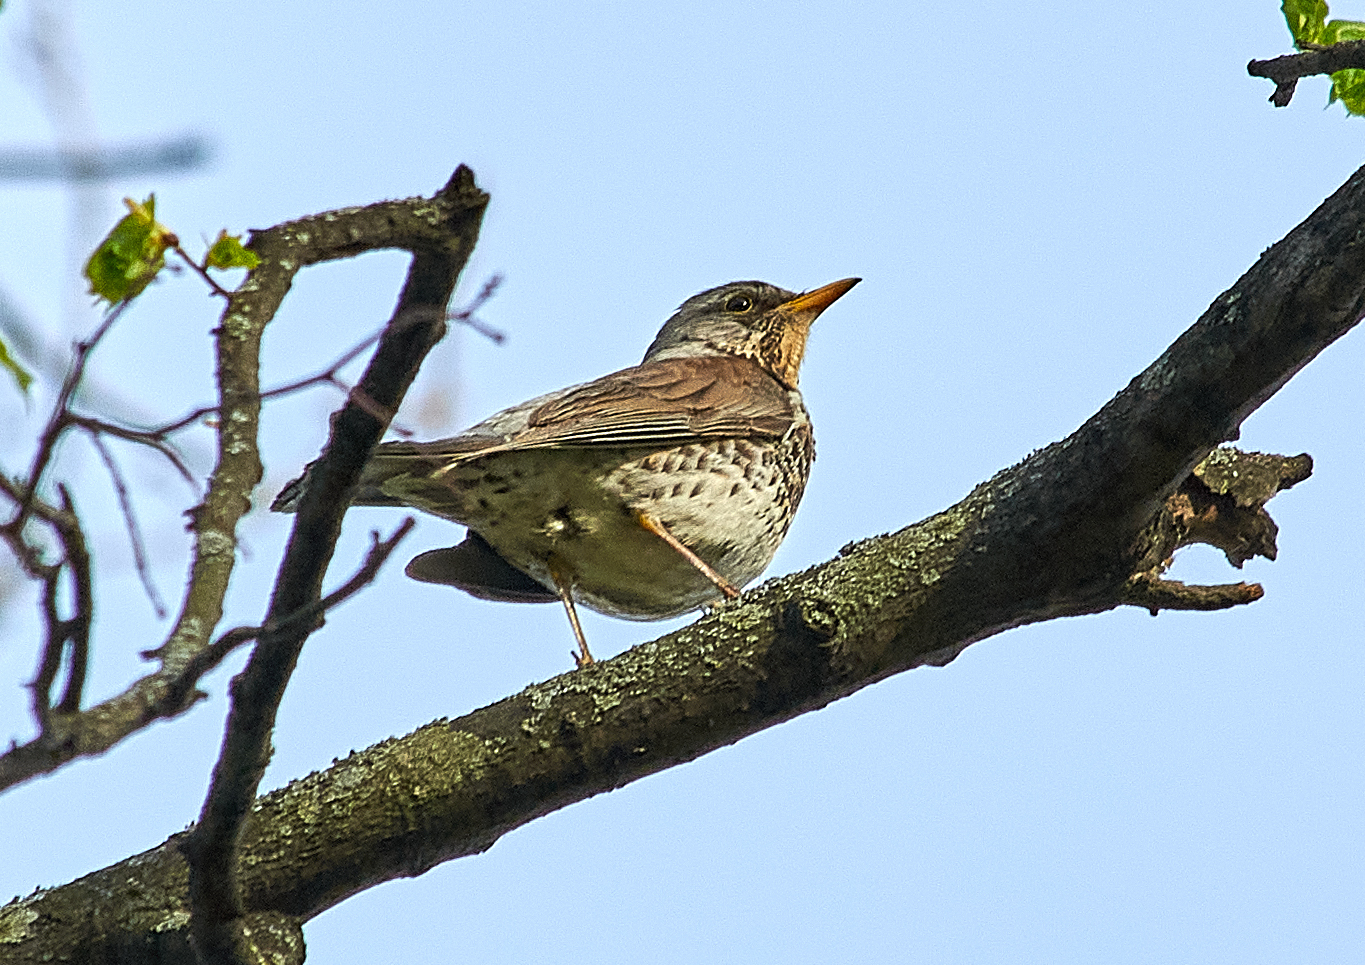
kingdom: Animalia
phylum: Chordata
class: Aves
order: Passeriformes
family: Turdidae
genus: Turdus
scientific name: Turdus pilaris
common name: Fieldfare
